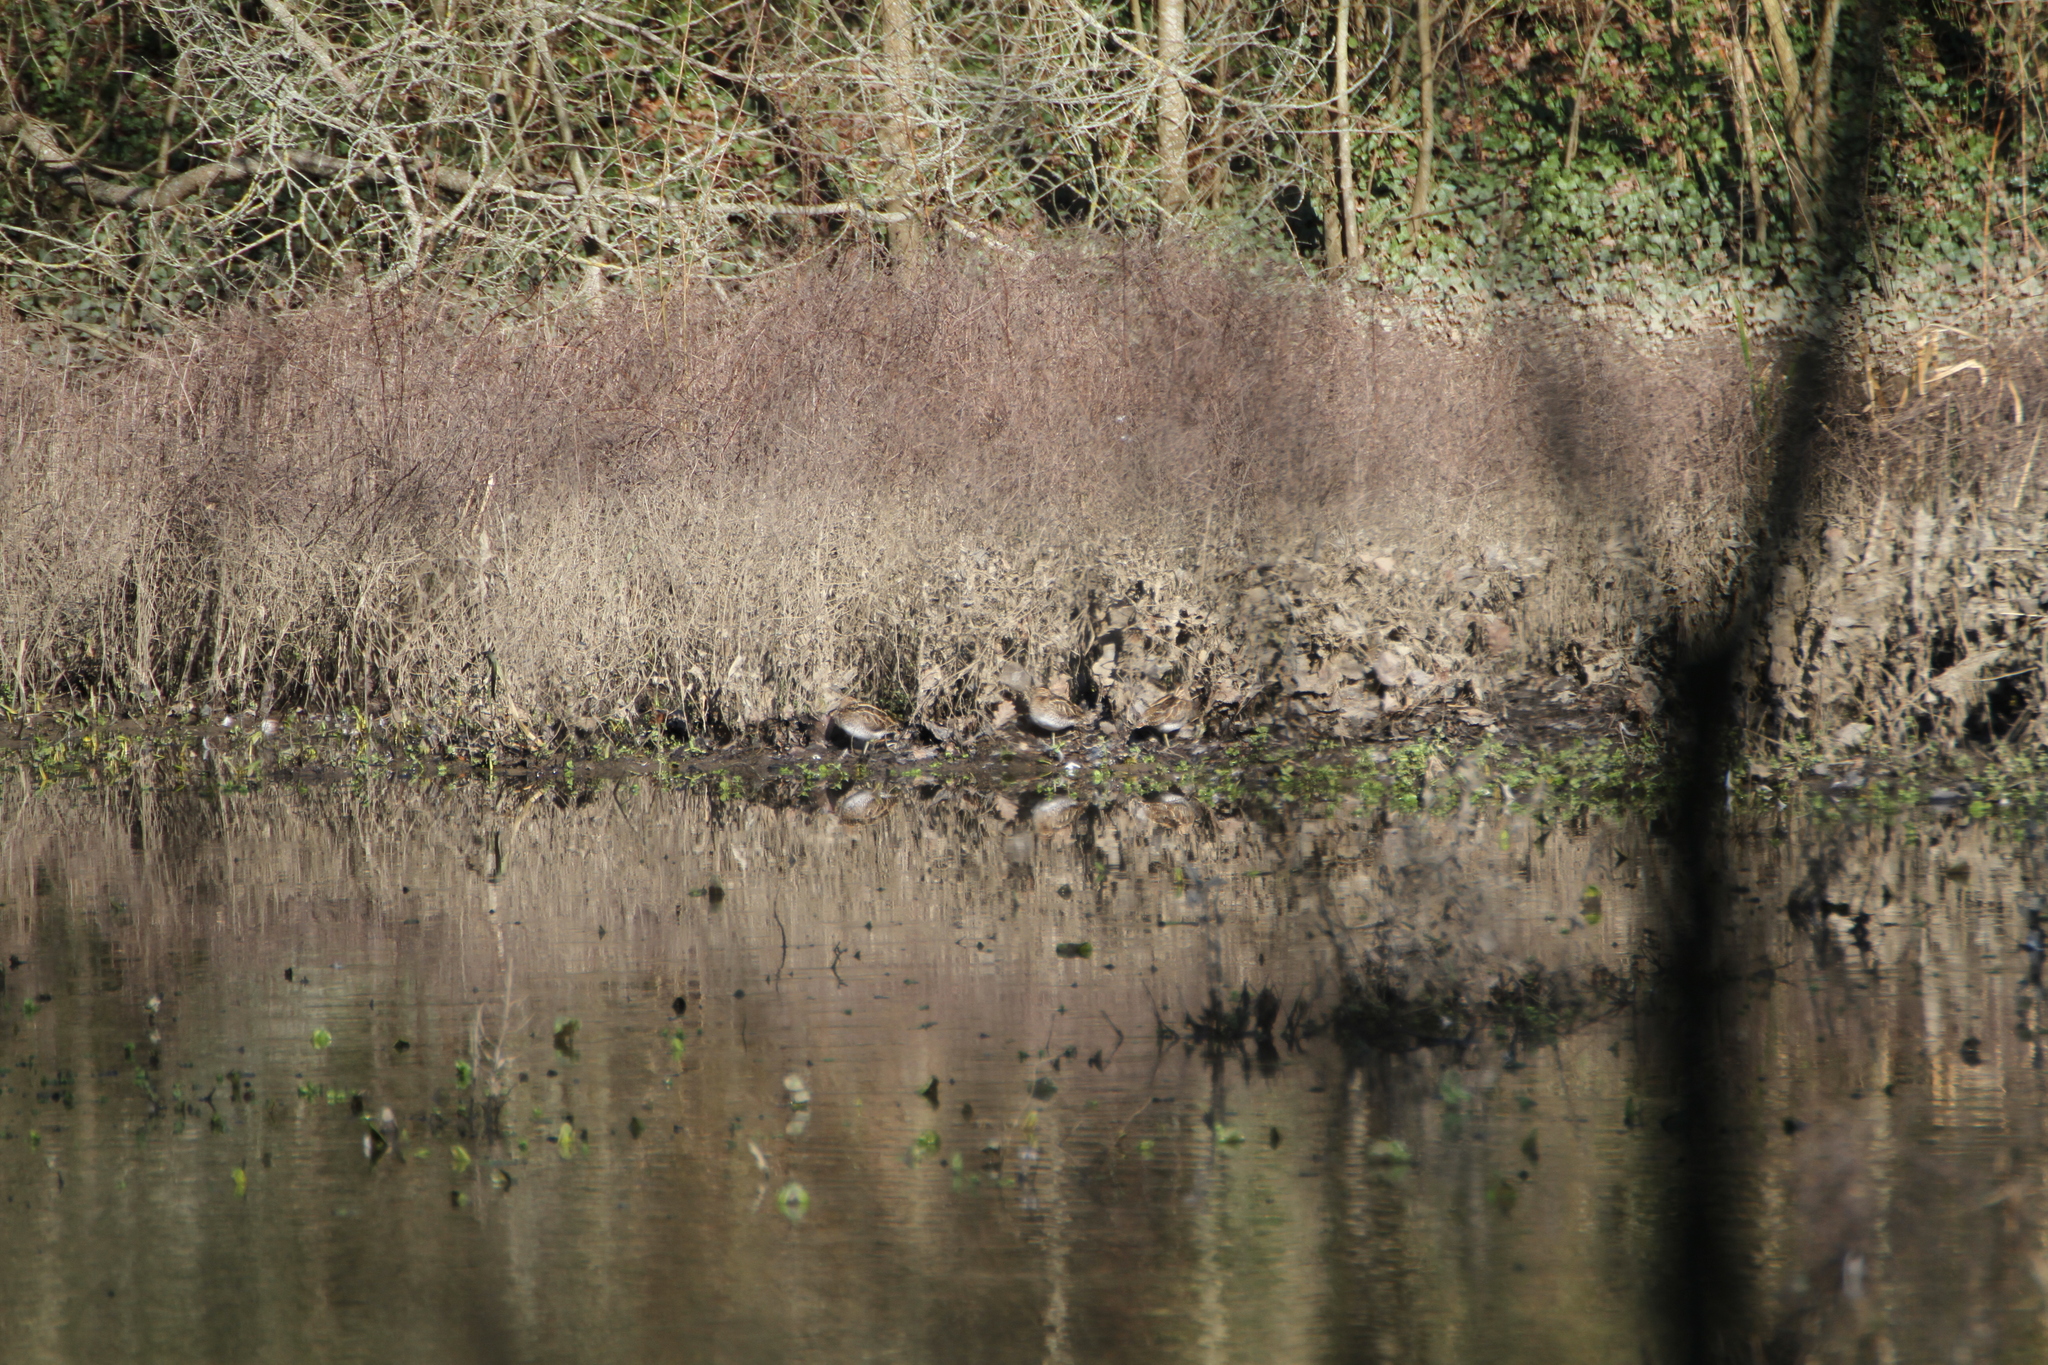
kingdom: Animalia
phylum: Chordata
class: Aves
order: Charadriiformes
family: Scolopacidae
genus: Gallinago
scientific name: Gallinago gallinago
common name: Common snipe
